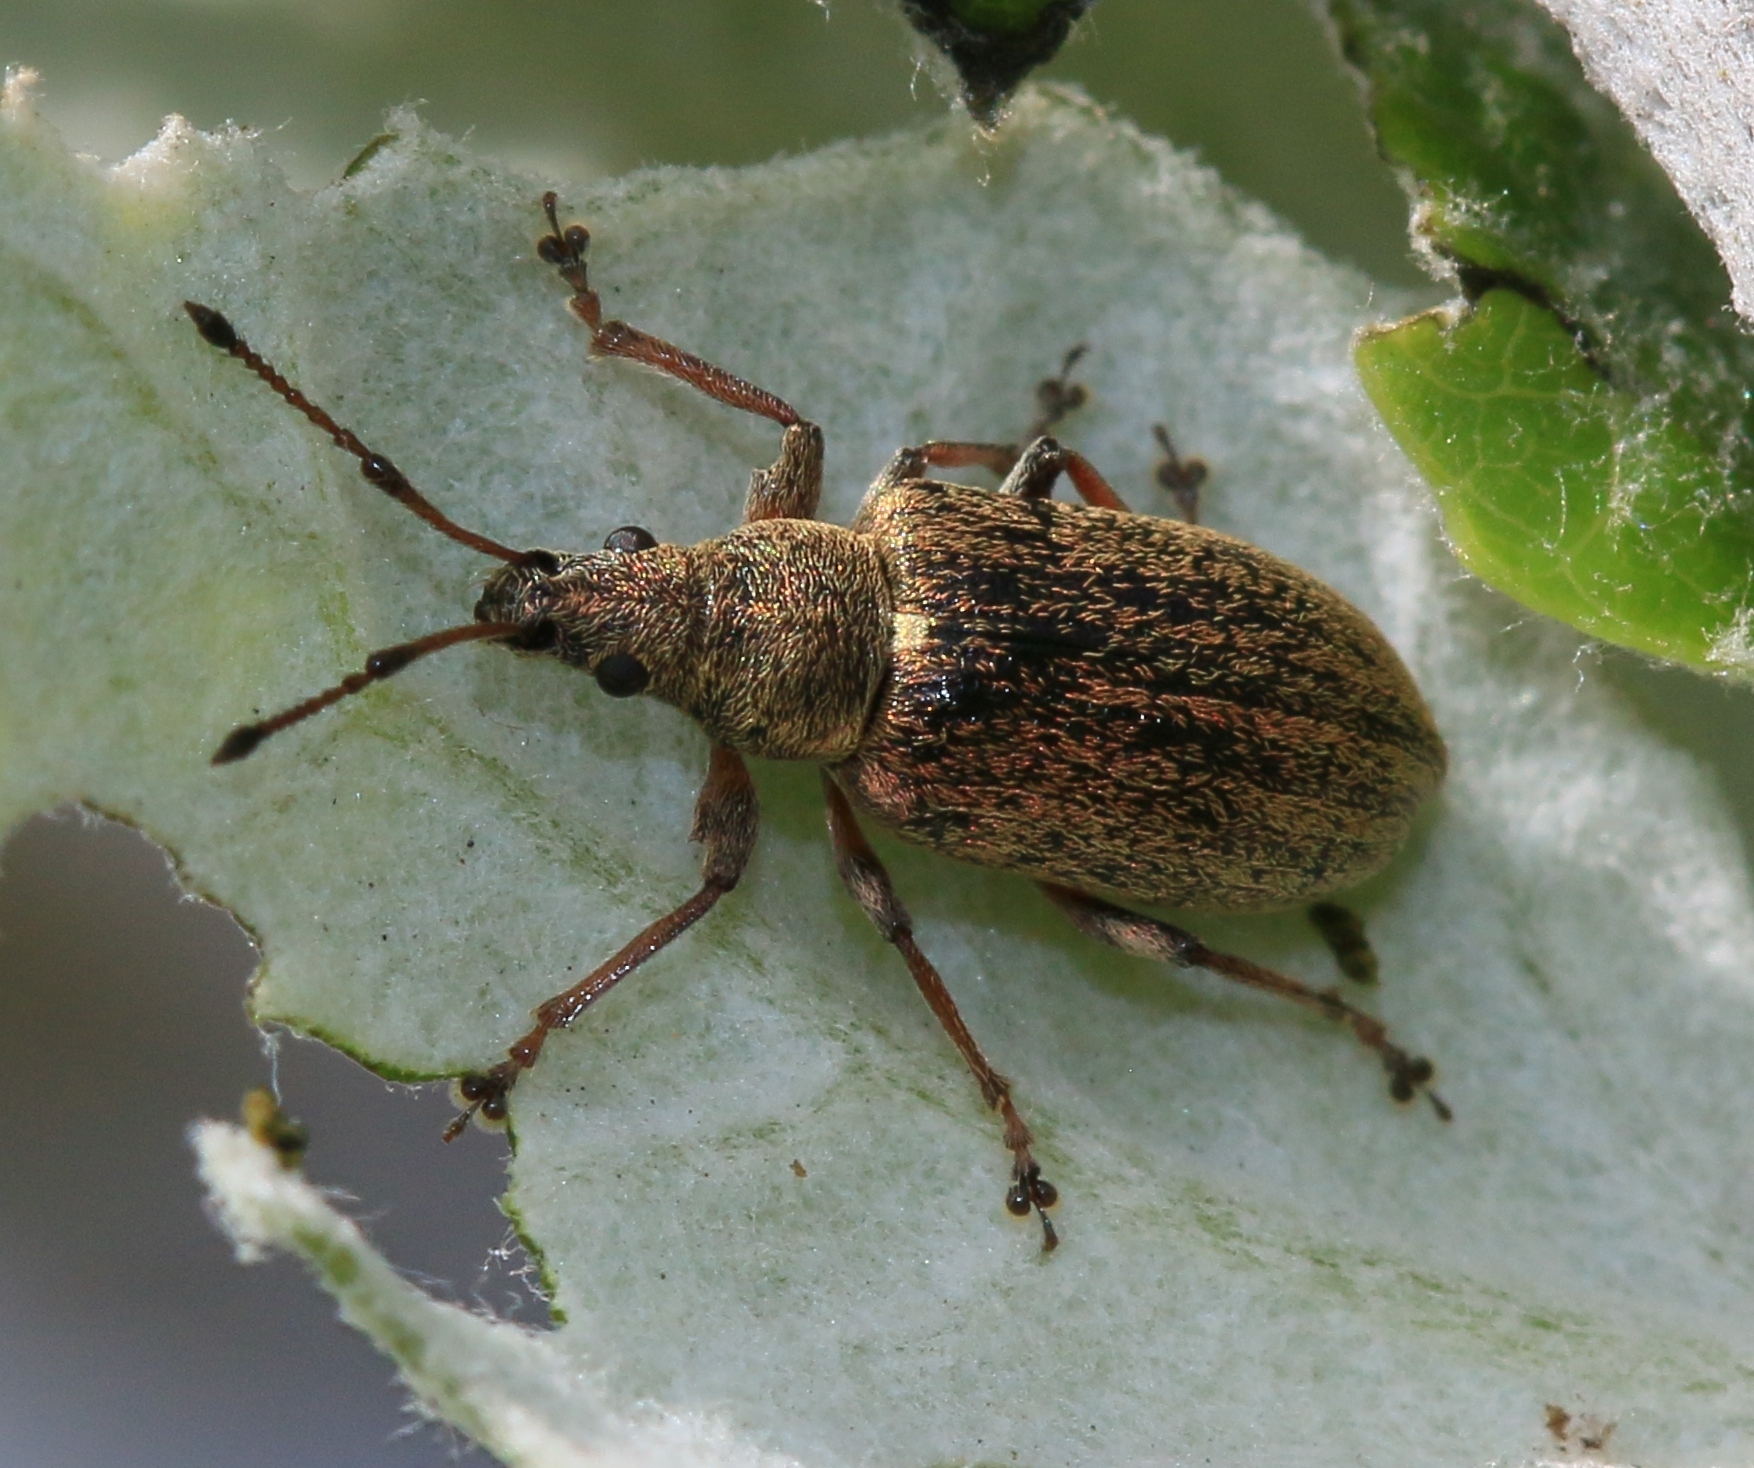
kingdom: Animalia
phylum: Arthropoda
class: Insecta
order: Coleoptera
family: Curculionidae
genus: Phyllobius
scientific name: Phyllobius pyri
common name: Common leaf weevil
